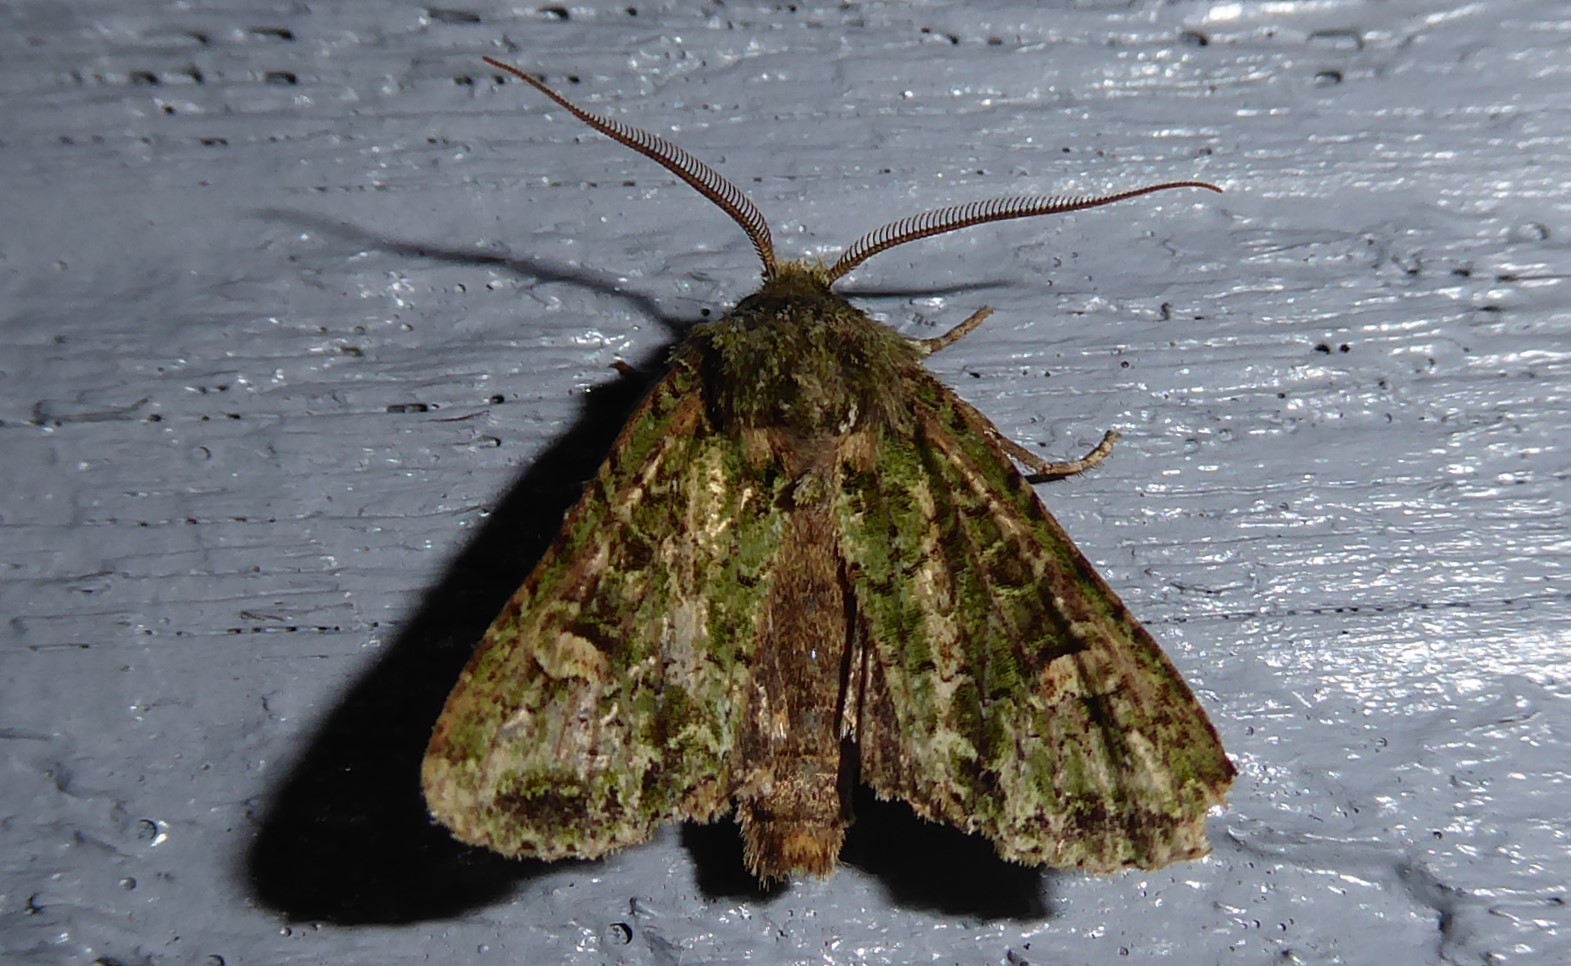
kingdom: Animalia
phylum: Arthropoda
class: Insecta
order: Lepidoptera
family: Noctuidae
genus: Ichneutica
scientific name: Ichneutica
